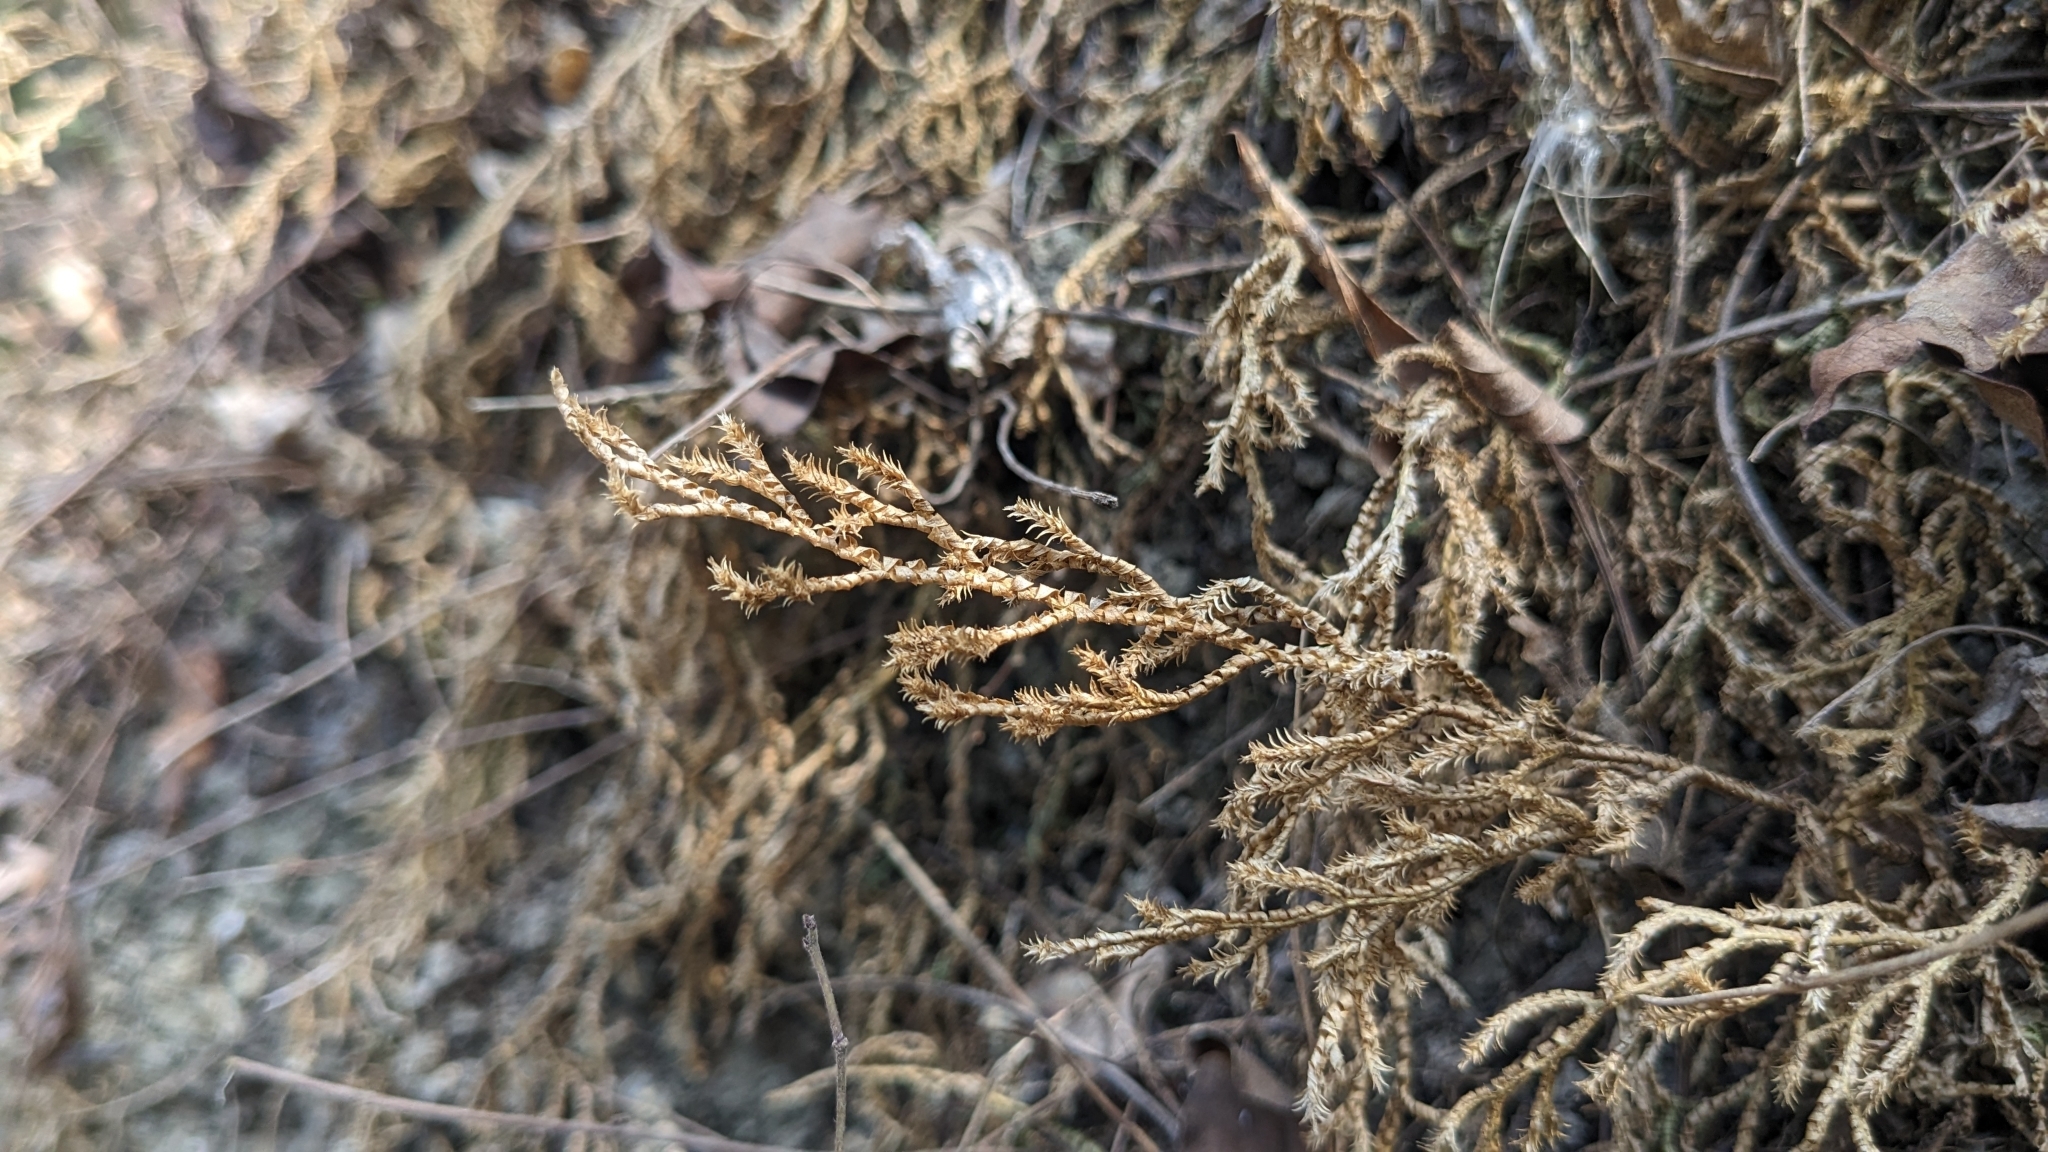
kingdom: Plantae
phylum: Tracheophyta
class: Lycopodiopsida
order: Selaginellales
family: Selaginellaceae
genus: Selaginella
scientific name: Selaginella repanda
